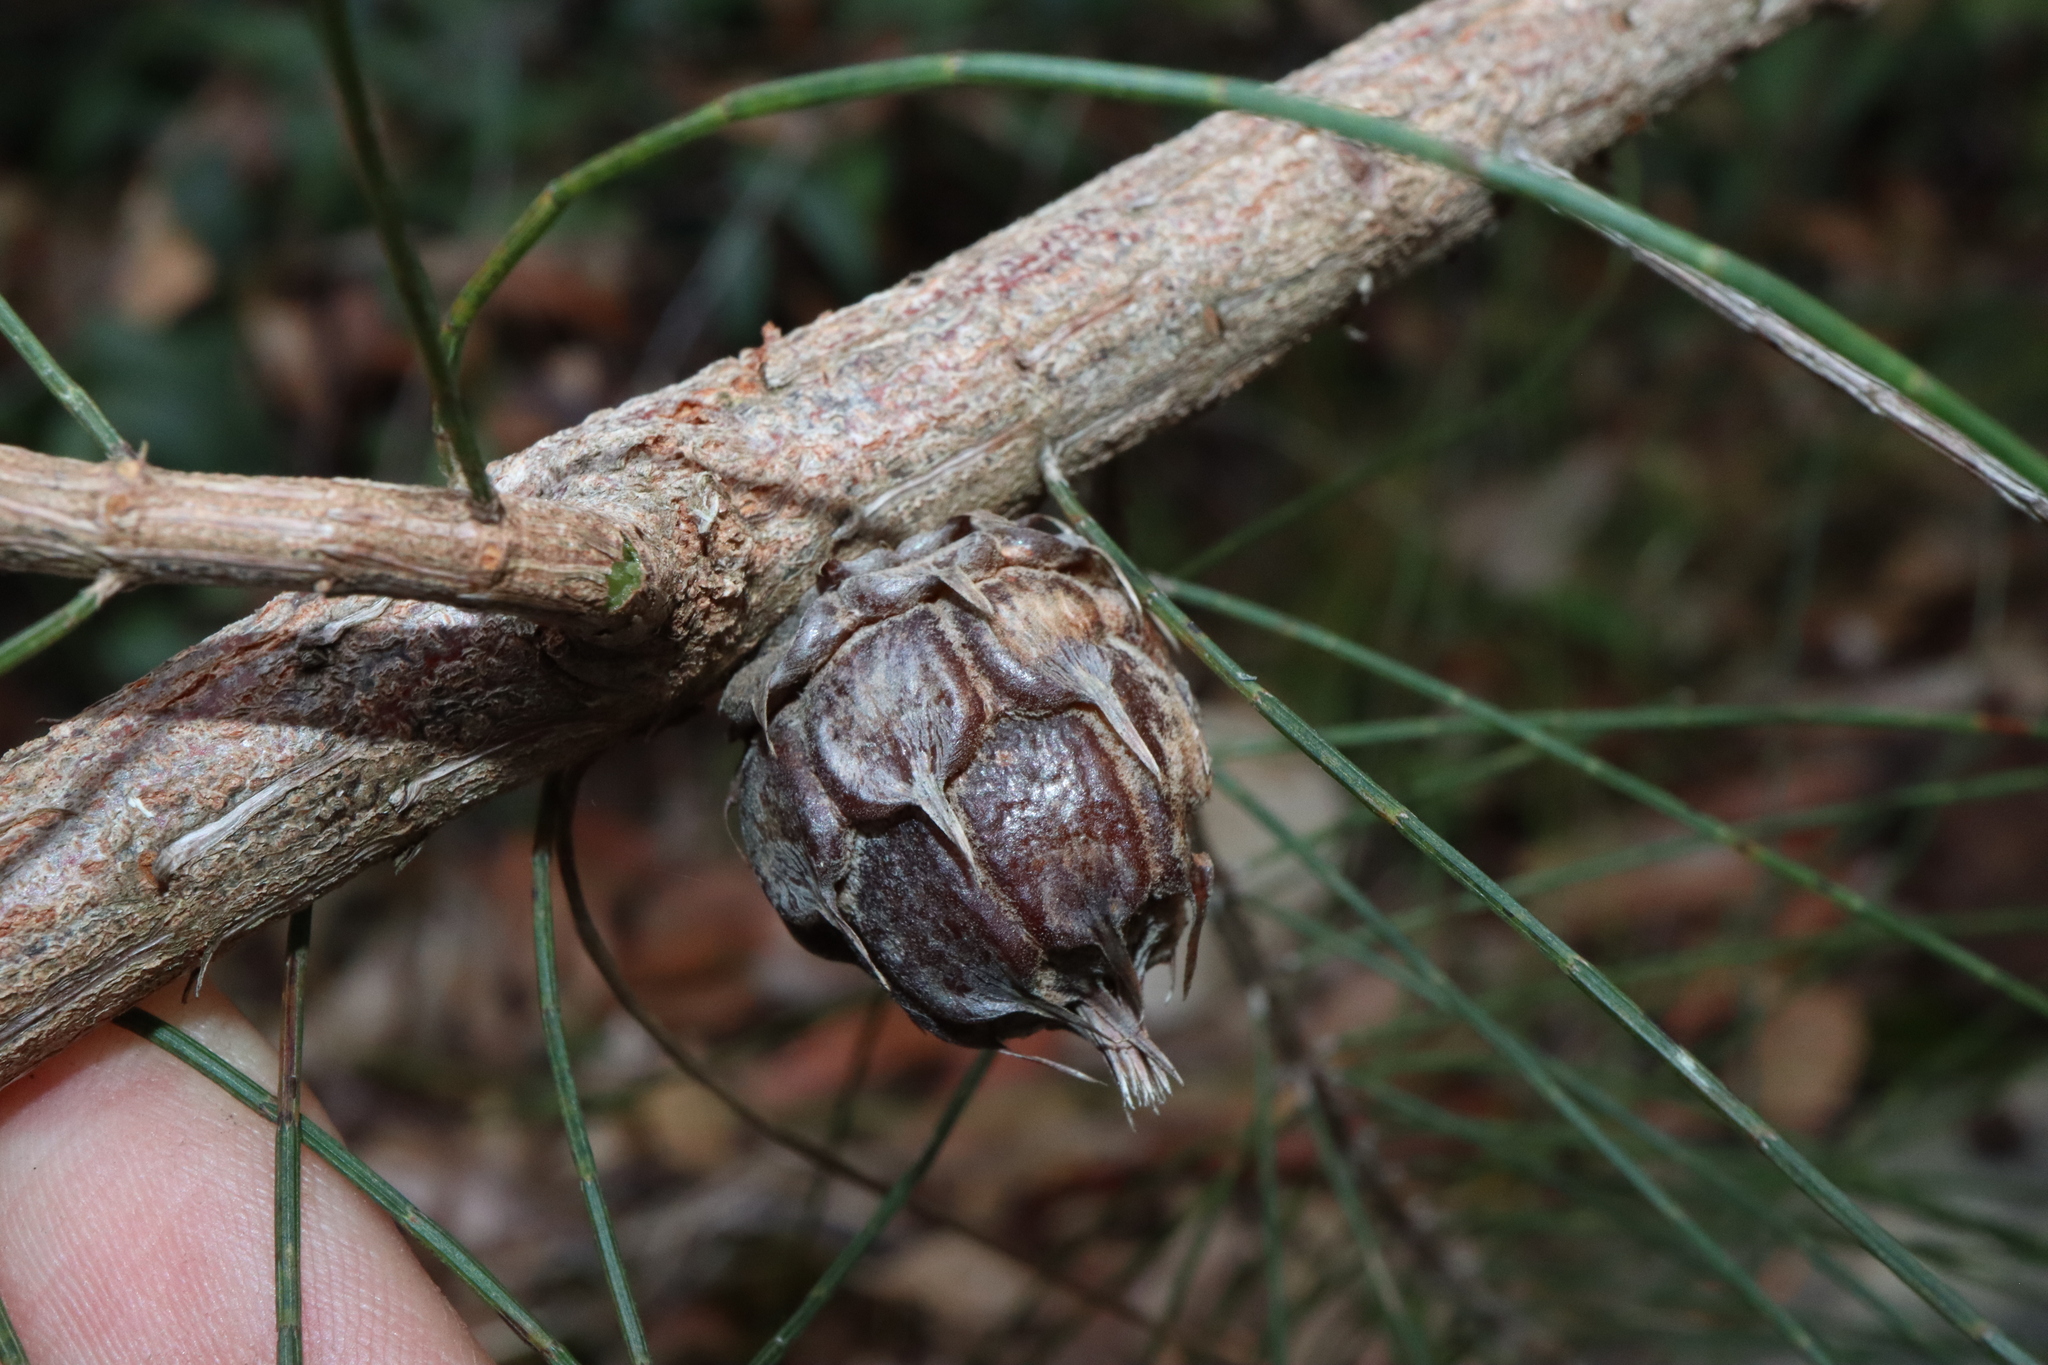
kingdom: Animalia
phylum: Arthropoda
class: Insecta
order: Hemiptera
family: Eriococcidae
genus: Cylindrococcus
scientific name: Cylindrococcus spiniferus
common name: Casuarina gall
